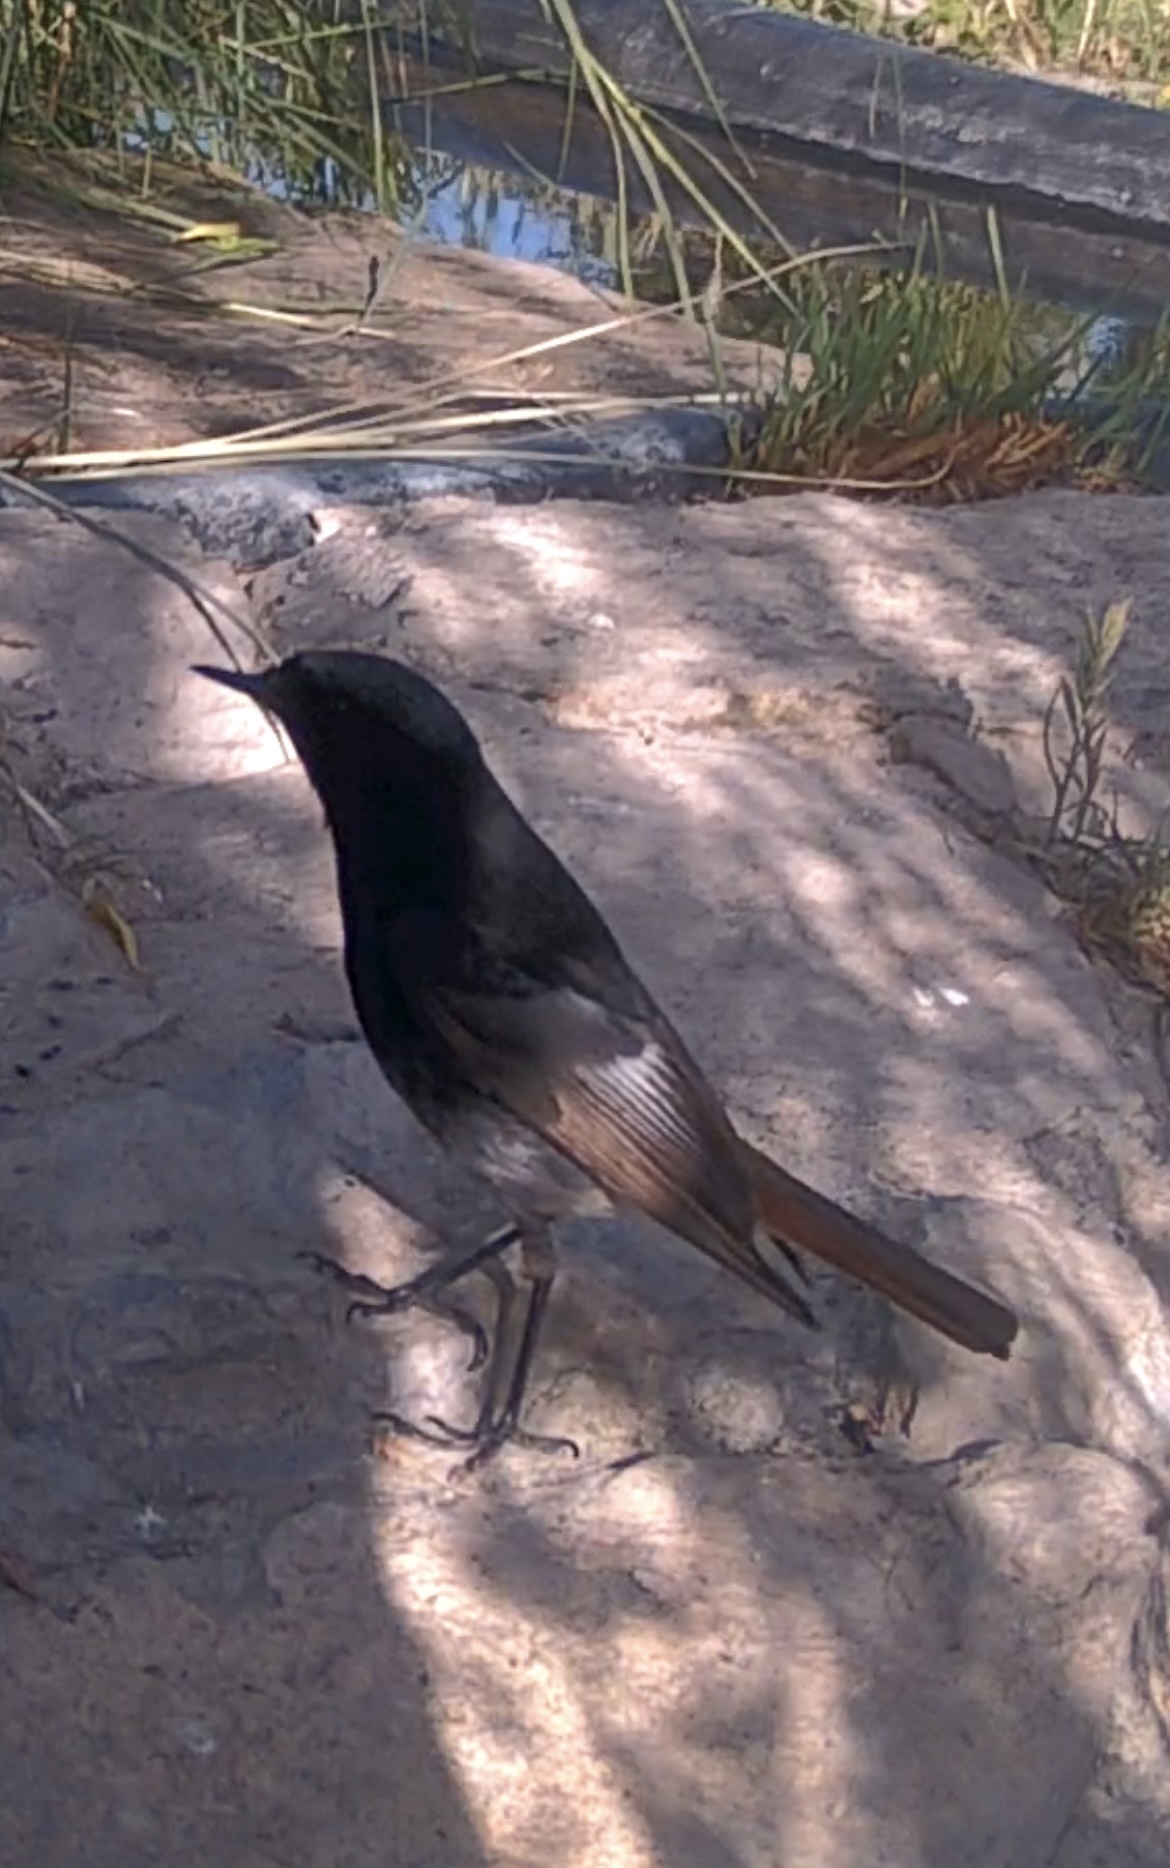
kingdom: Animalia
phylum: Chordata
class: Aves
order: Passeriformes
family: Muscicapidae
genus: Phoenicurus
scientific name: Phoenicurus ochruros
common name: Black redstart
